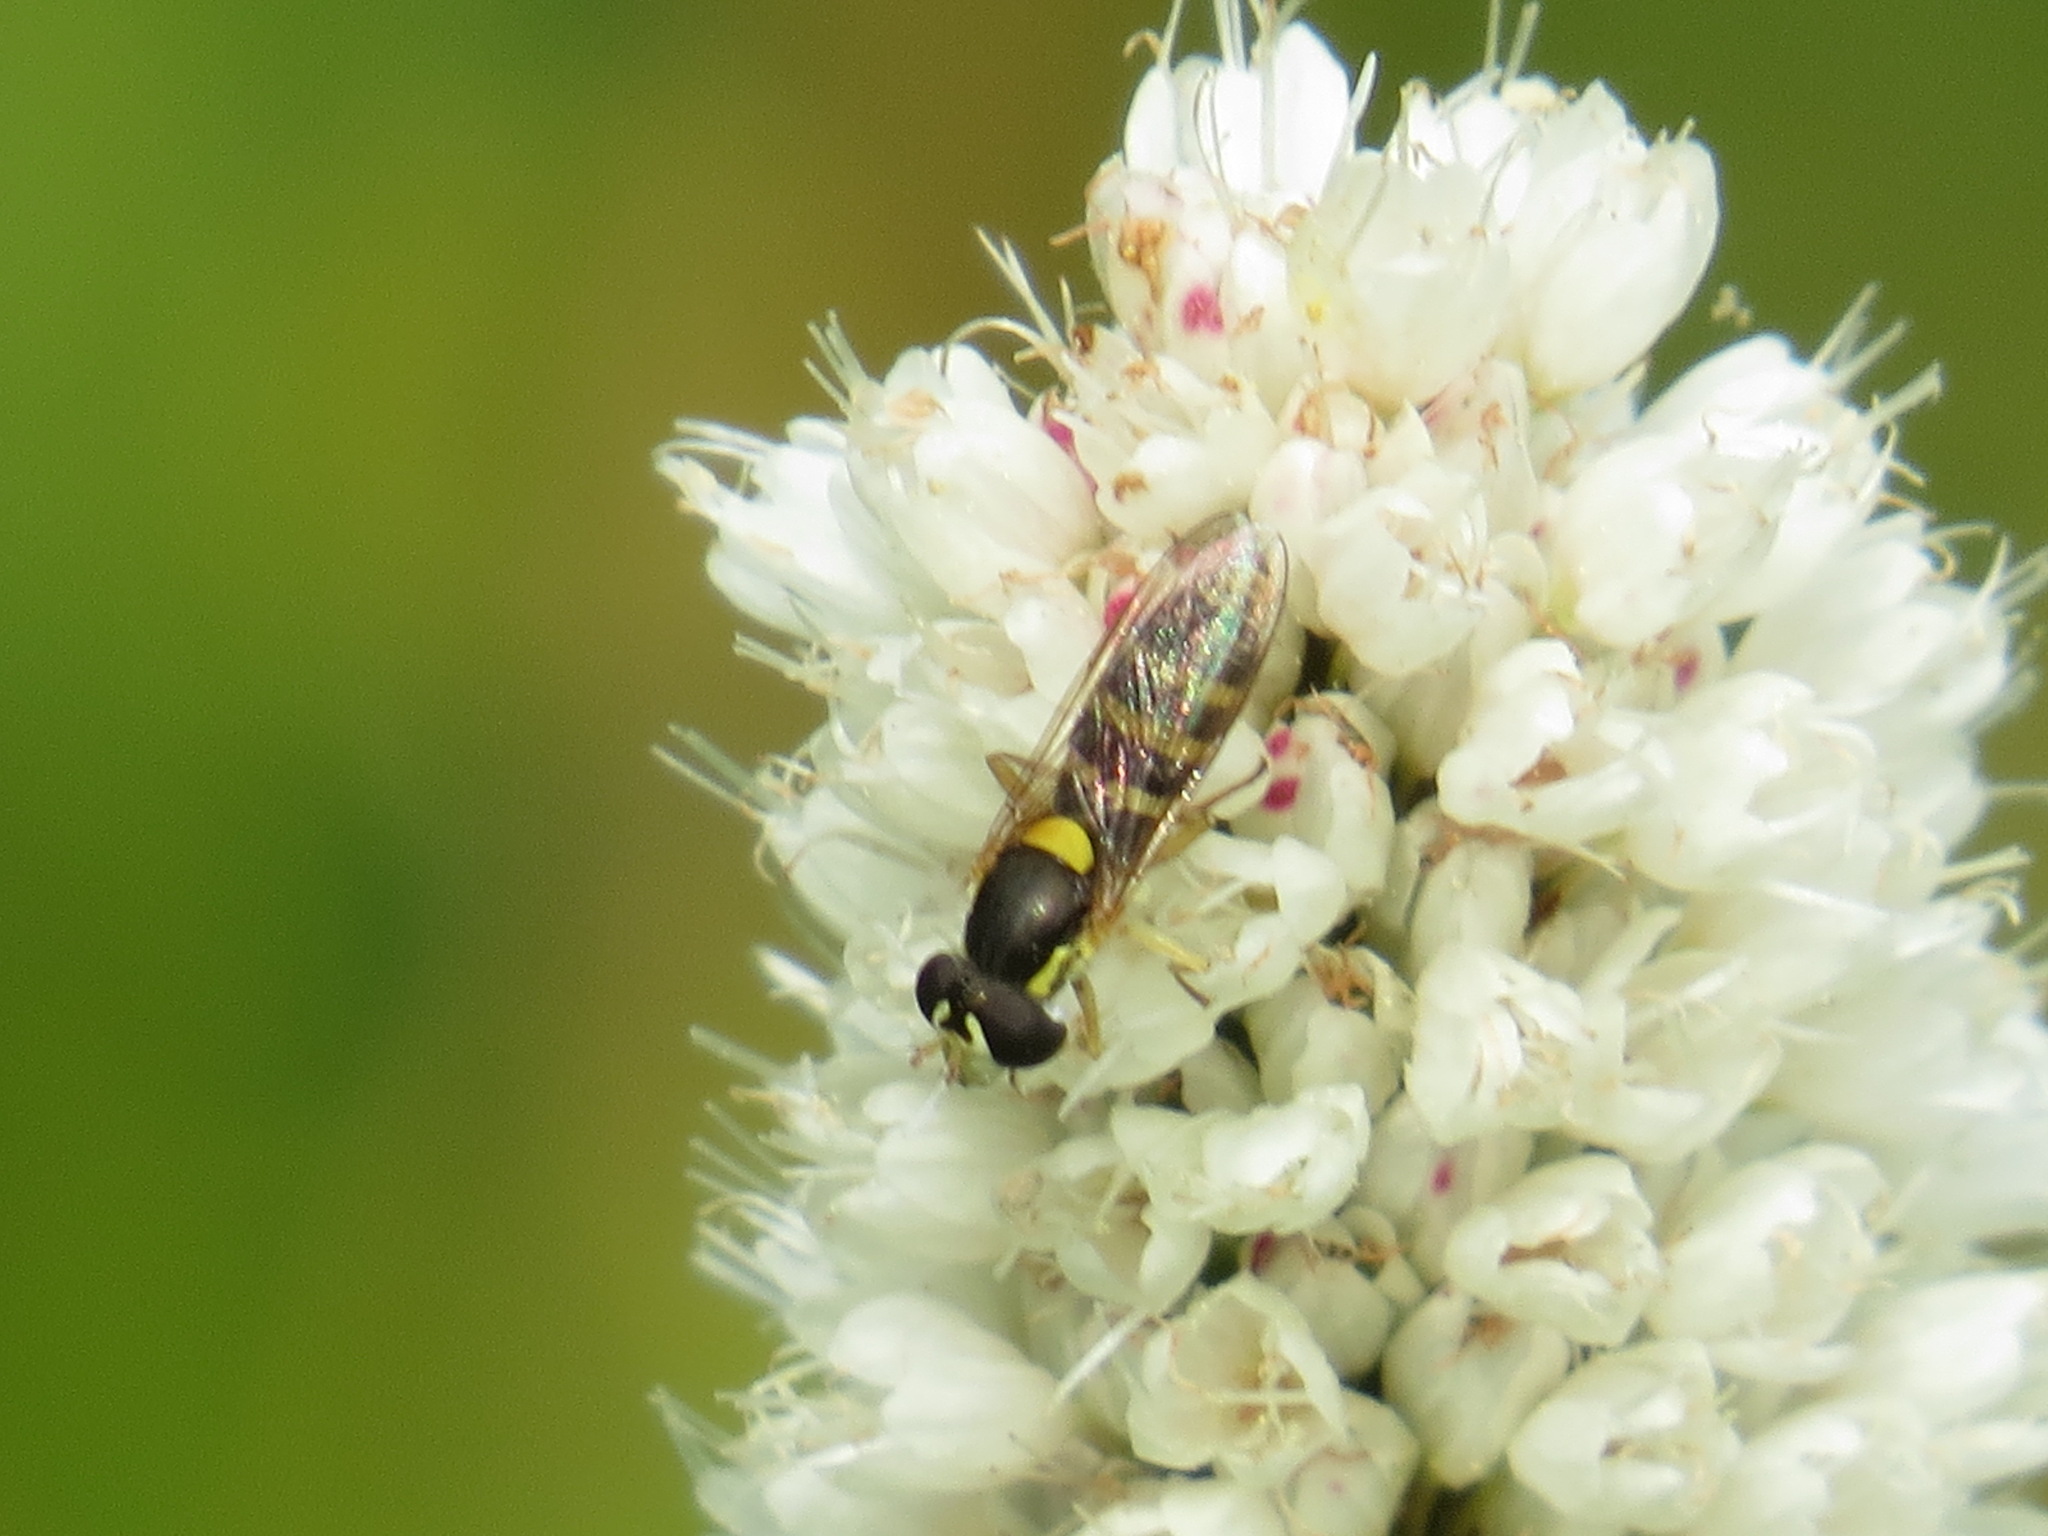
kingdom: Animalia
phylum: Arthropoda
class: Insecta
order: Diptera
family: Syrphidae
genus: Sphaerophoria
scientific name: Sphaerophoria sulphuripes
